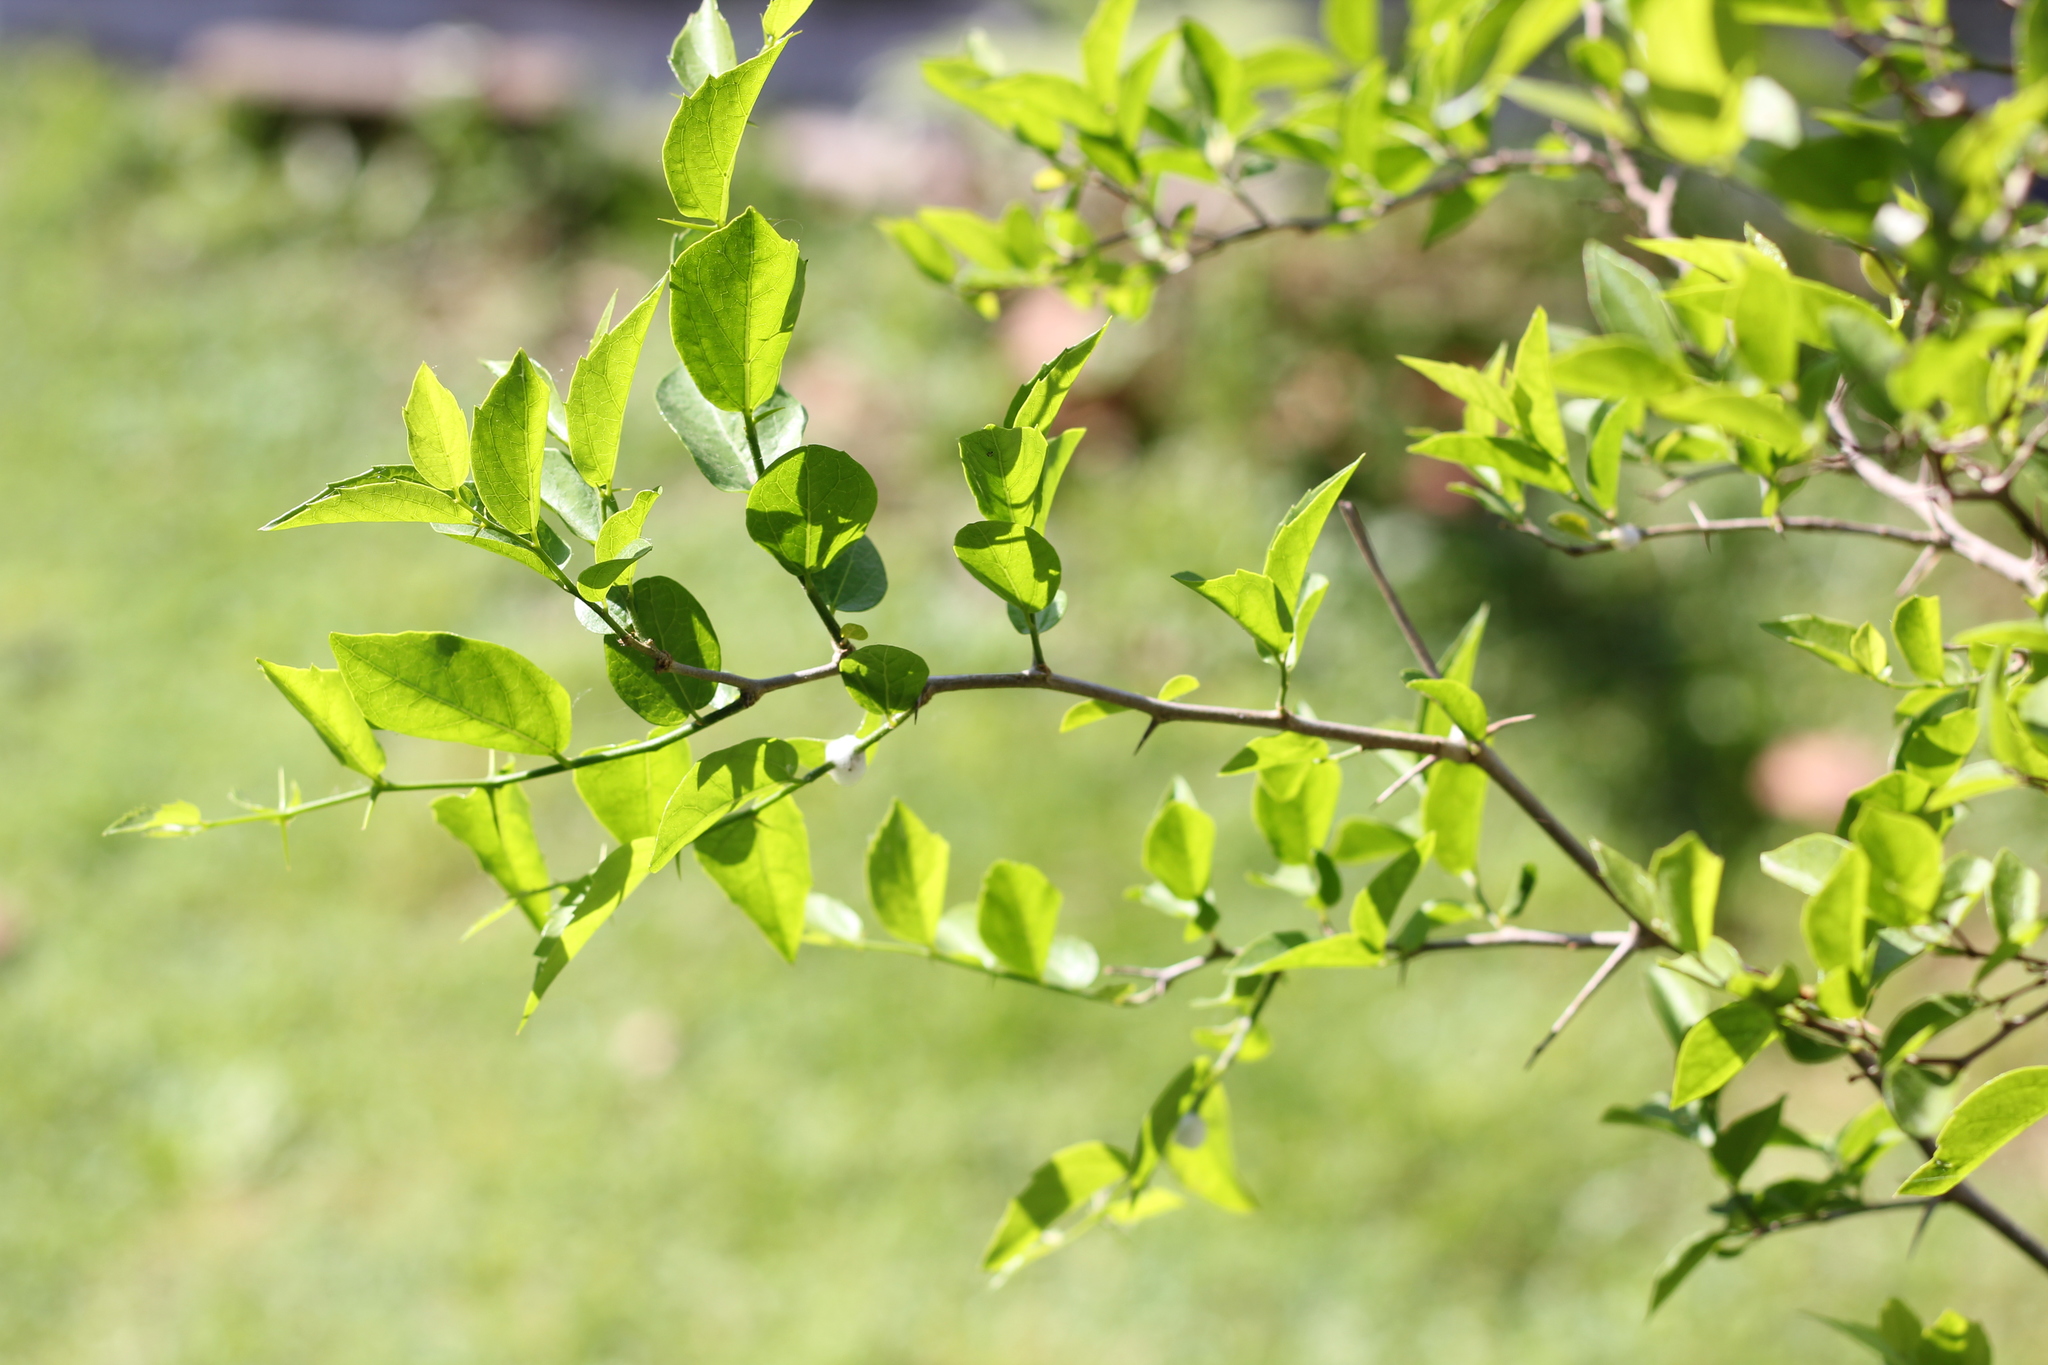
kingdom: Plantae
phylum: Tracheophyta
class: Magnoliopsida
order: Rosales
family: Cannabaceae
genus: Celtis
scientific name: Celtis tala
